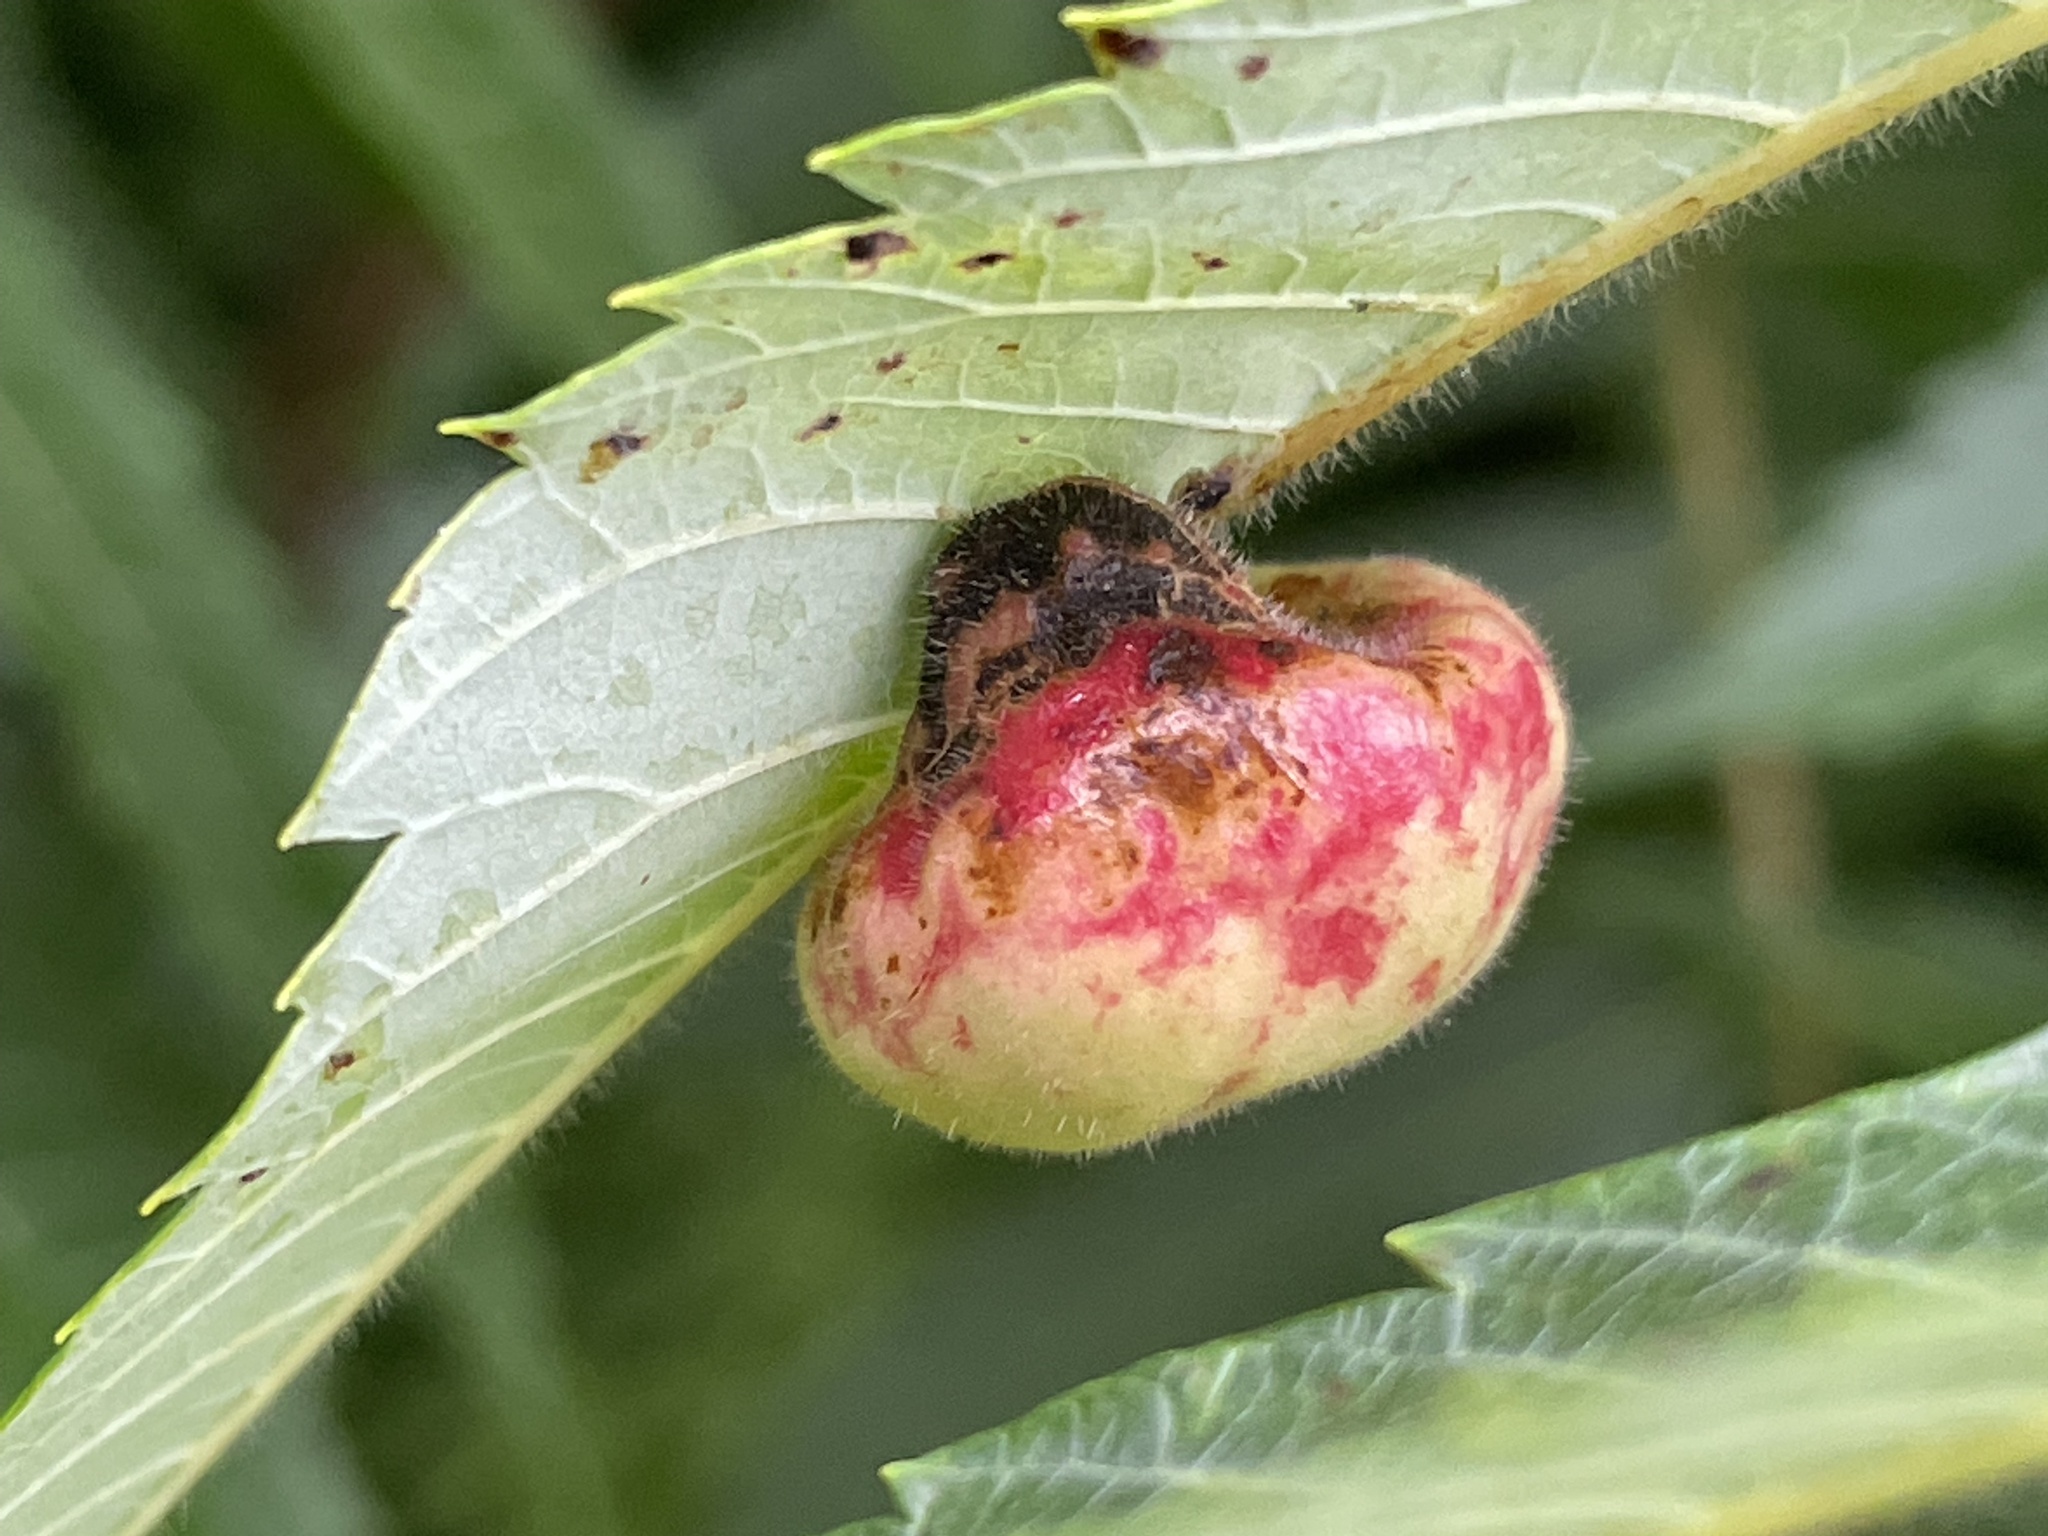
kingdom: Animalia
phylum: Arthropoda
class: Insecta
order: Hemiptera
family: Aphididae
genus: Melaphis
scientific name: Melaphis rhois
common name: Sumac gall aphid
